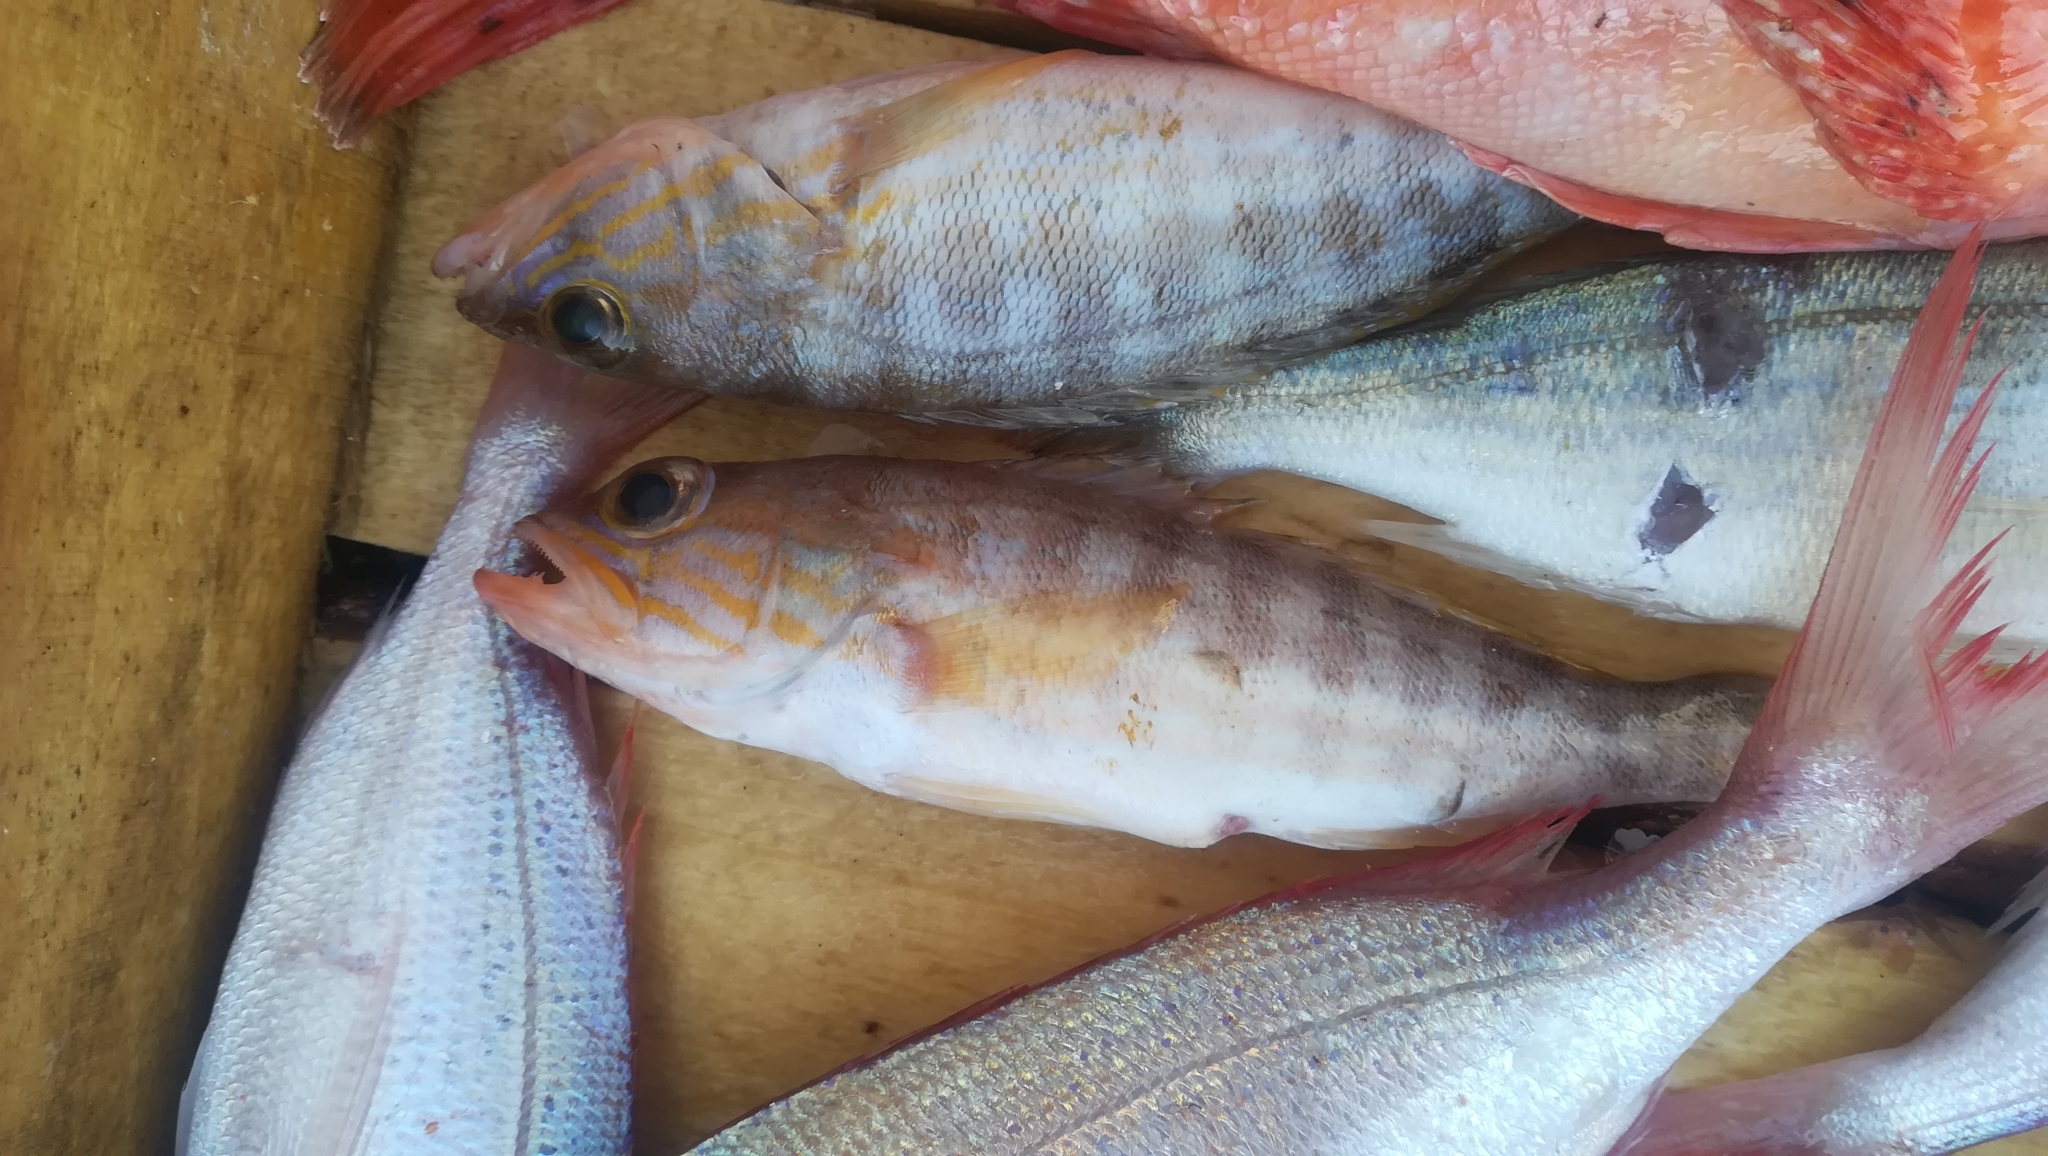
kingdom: Animalia
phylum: Chordata
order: Perciformes
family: Serranidae
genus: Serranus
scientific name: Serranus cabrilla
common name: Comber
